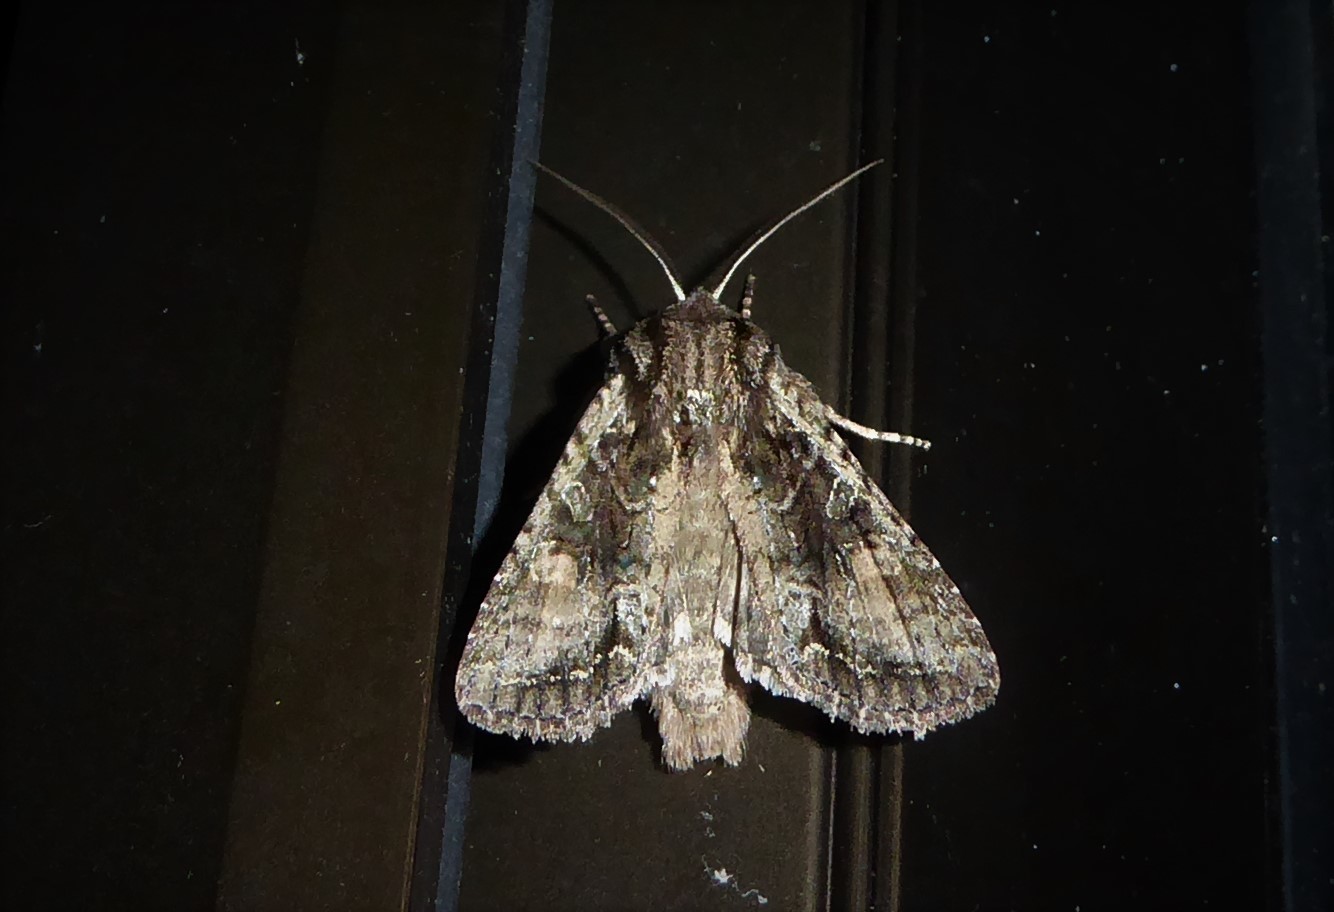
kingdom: Animalia
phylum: Arthropoda
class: Insecta
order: Lepidoptera
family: Noctuidae
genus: Ichneutica
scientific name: Ichneutica mutans
